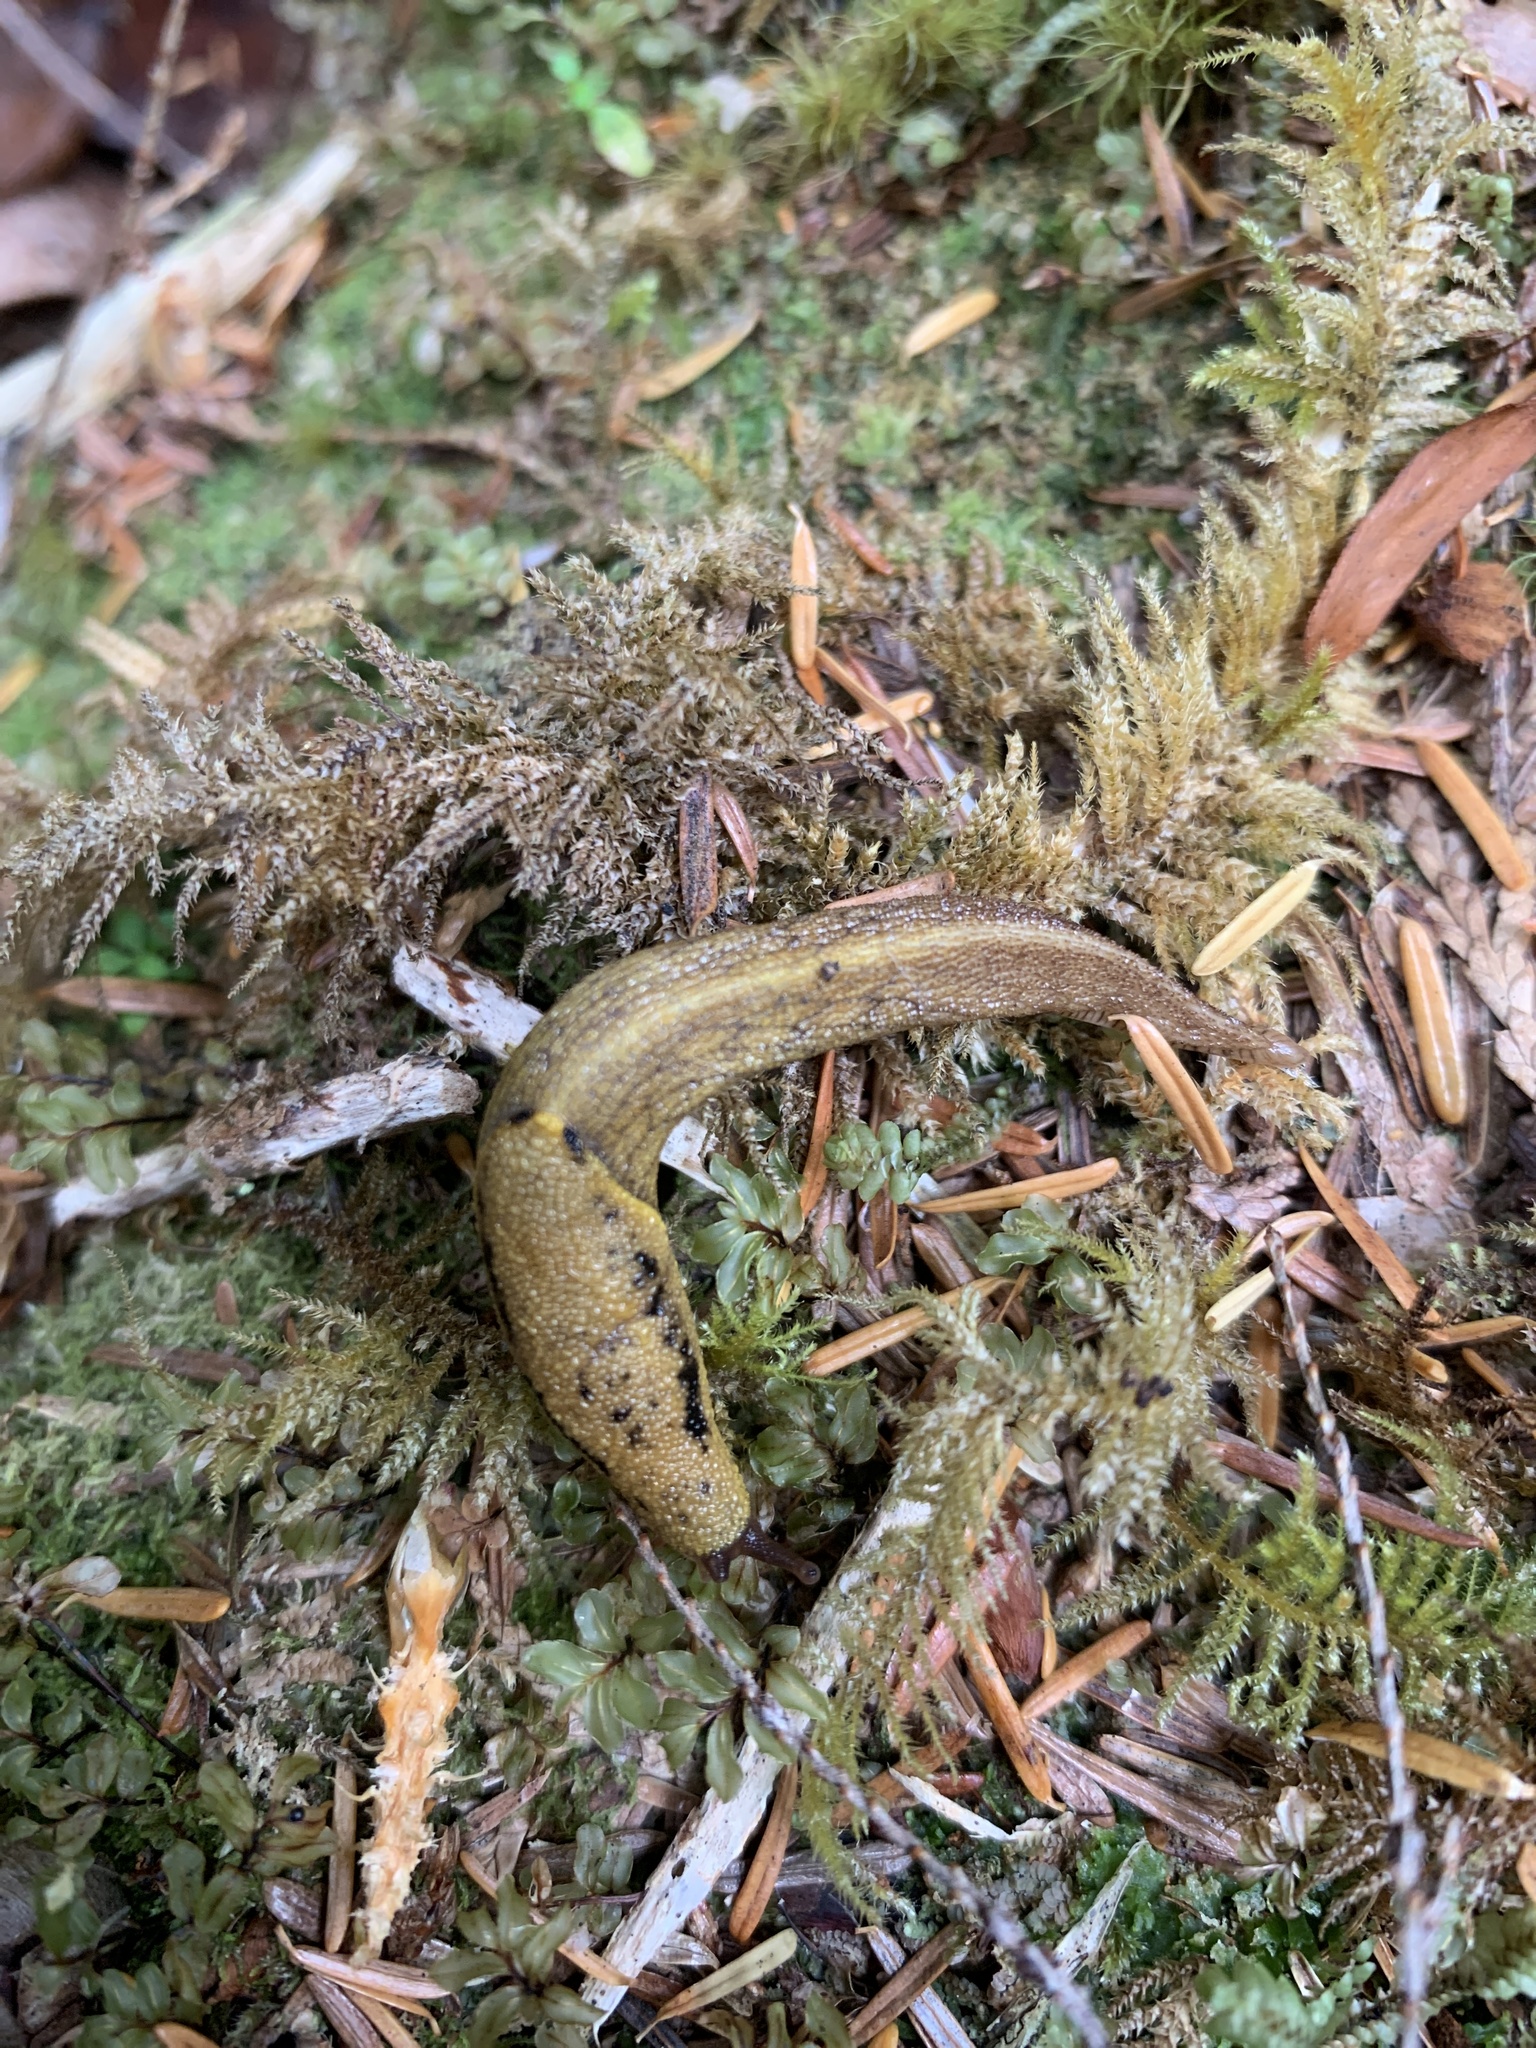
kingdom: Animalia
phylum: Mollusca
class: Gastropoda
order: Stylommatophora
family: Ariolimacidae
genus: Prophysaon
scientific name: Prophysaon foliolatum
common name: Yellow-bordered taildropper
